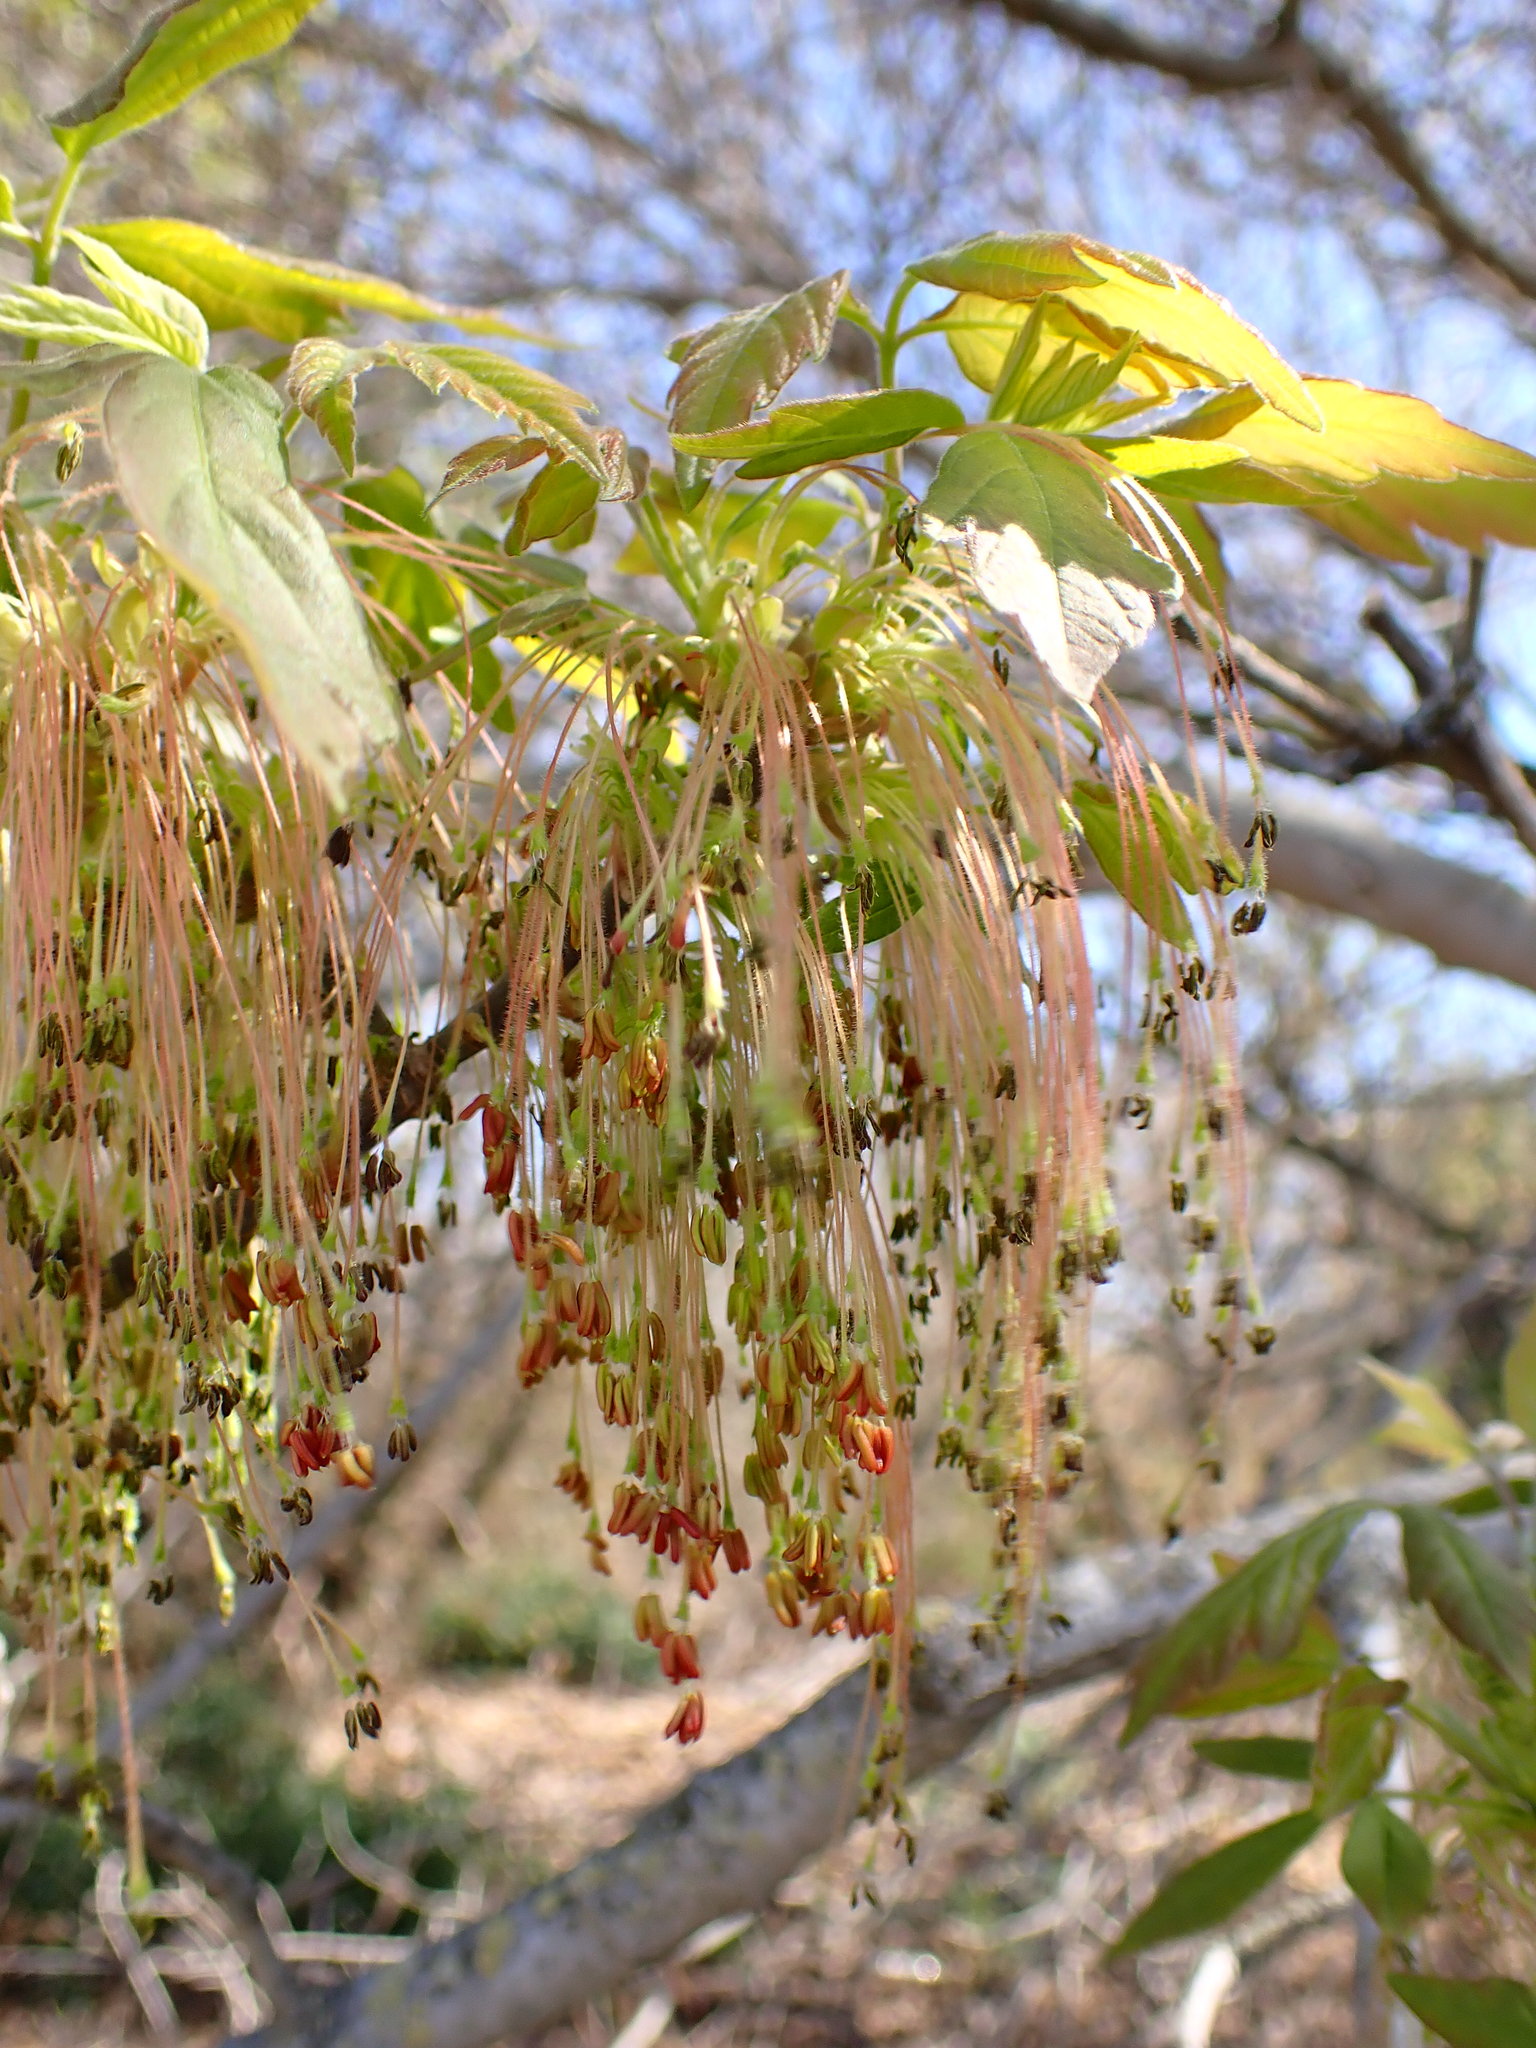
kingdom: Plantae
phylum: Tracheophyta
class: Magnoliopsida
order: Sapindales
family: Sapindaceae
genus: Acer
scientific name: Acer negundo
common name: Ashleaf maple
